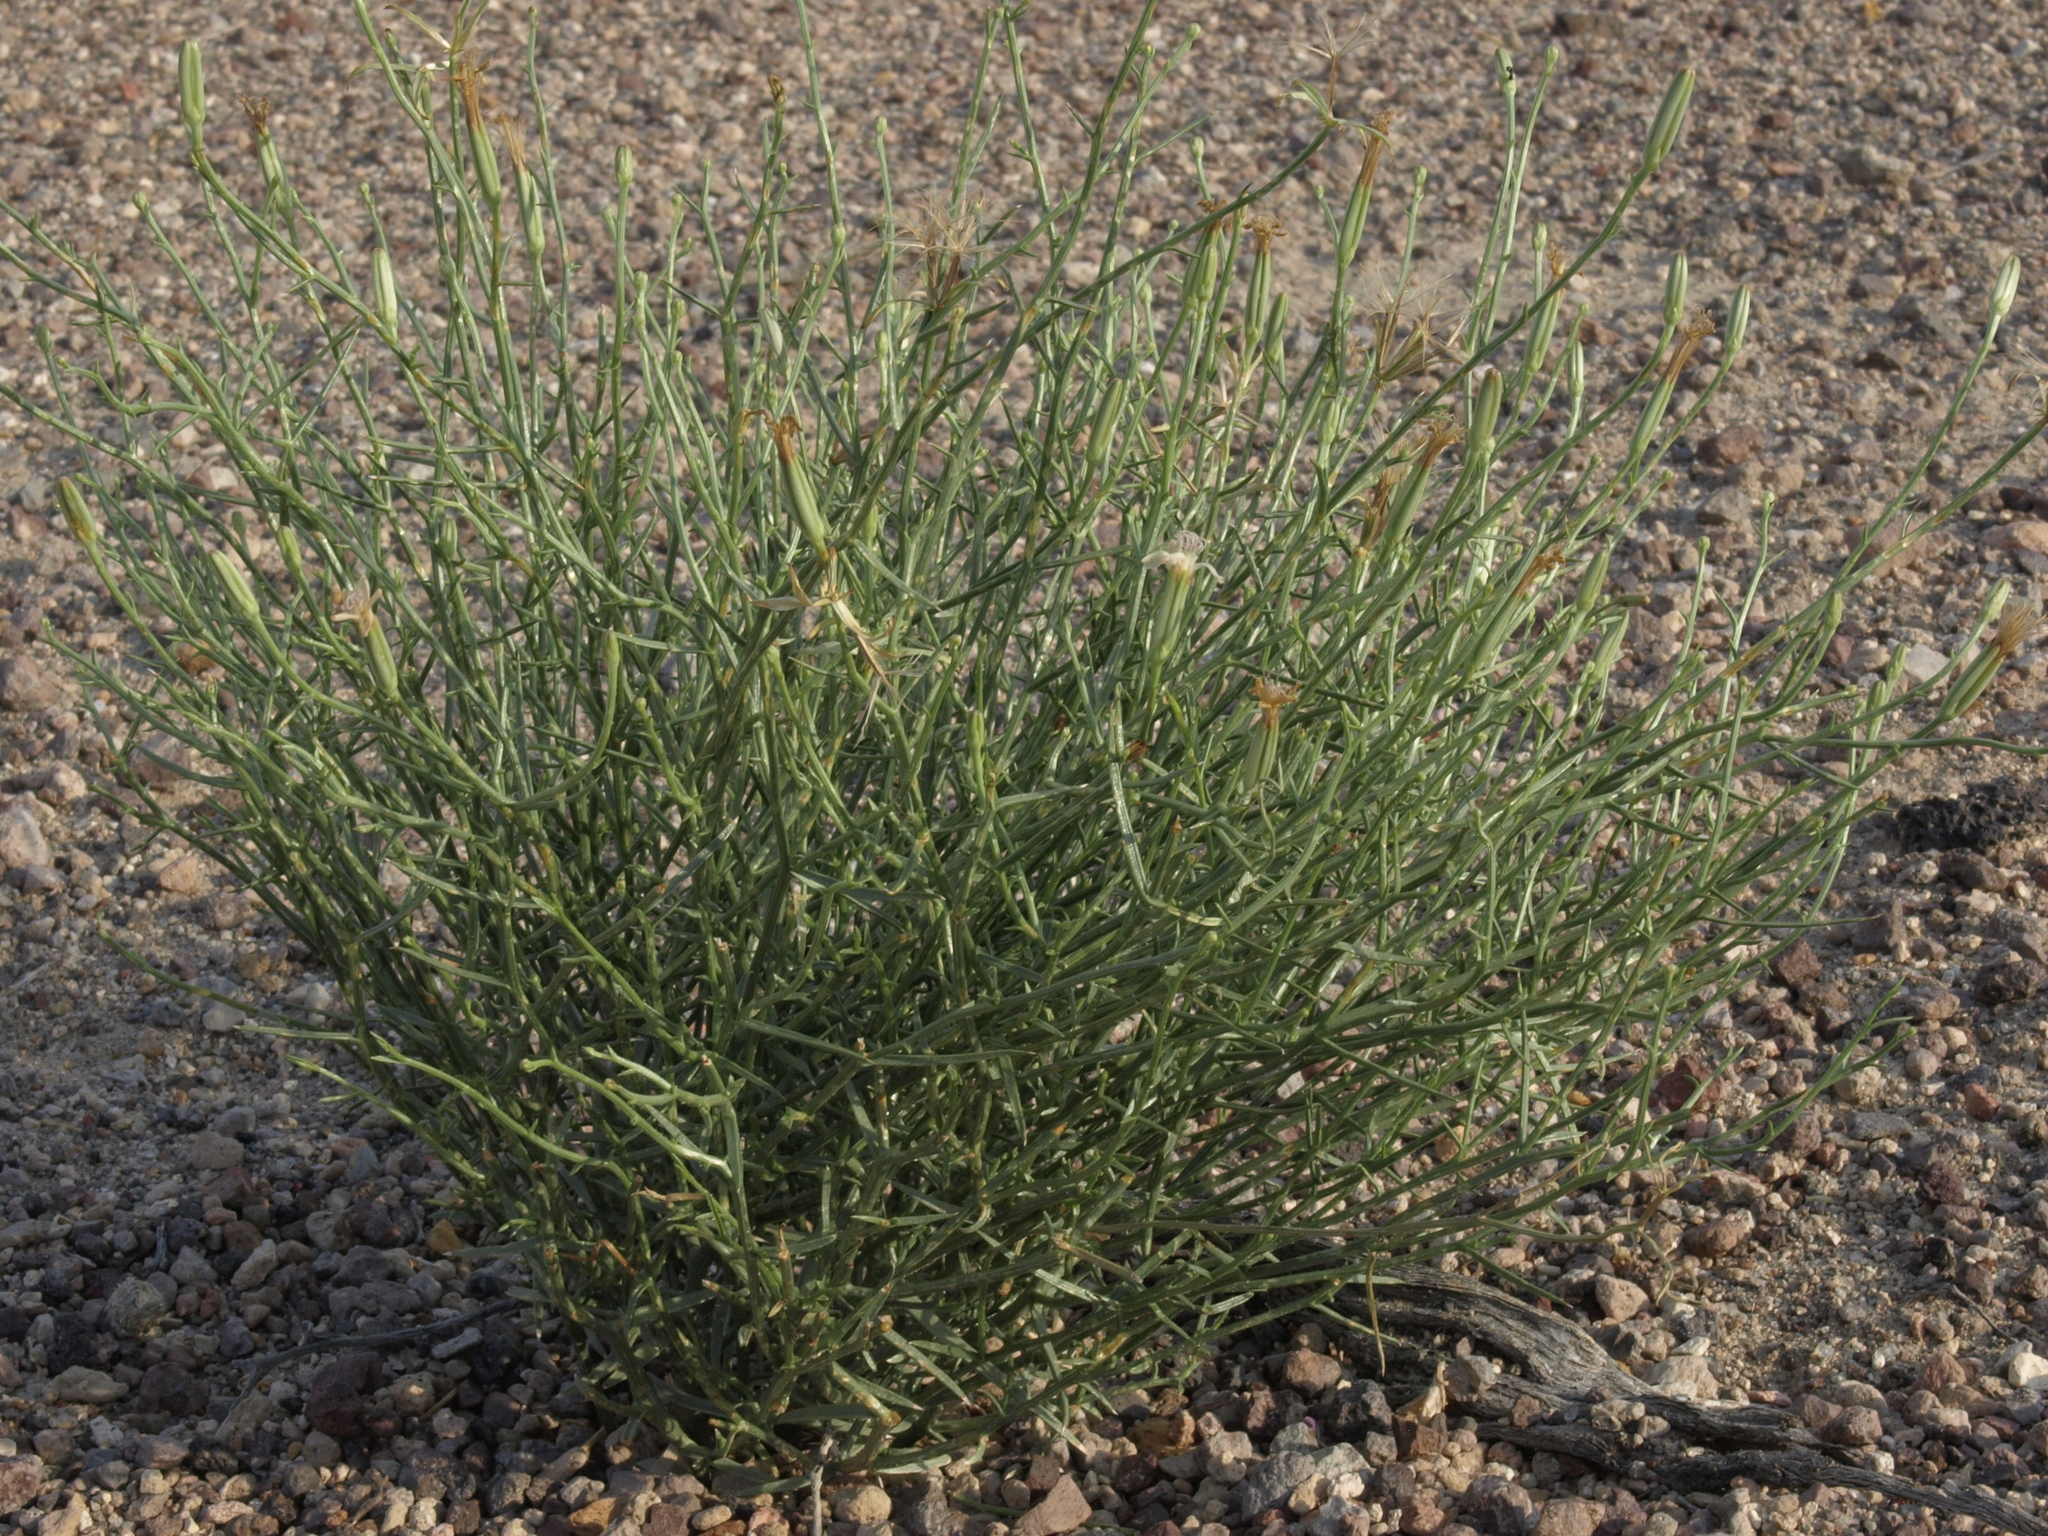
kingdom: Plantae
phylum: Tracheophyta
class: Magnoliopsida
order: Asterales
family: Asteraceae
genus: Chaetadelpha
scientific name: Chaetadelpha wheeleri
